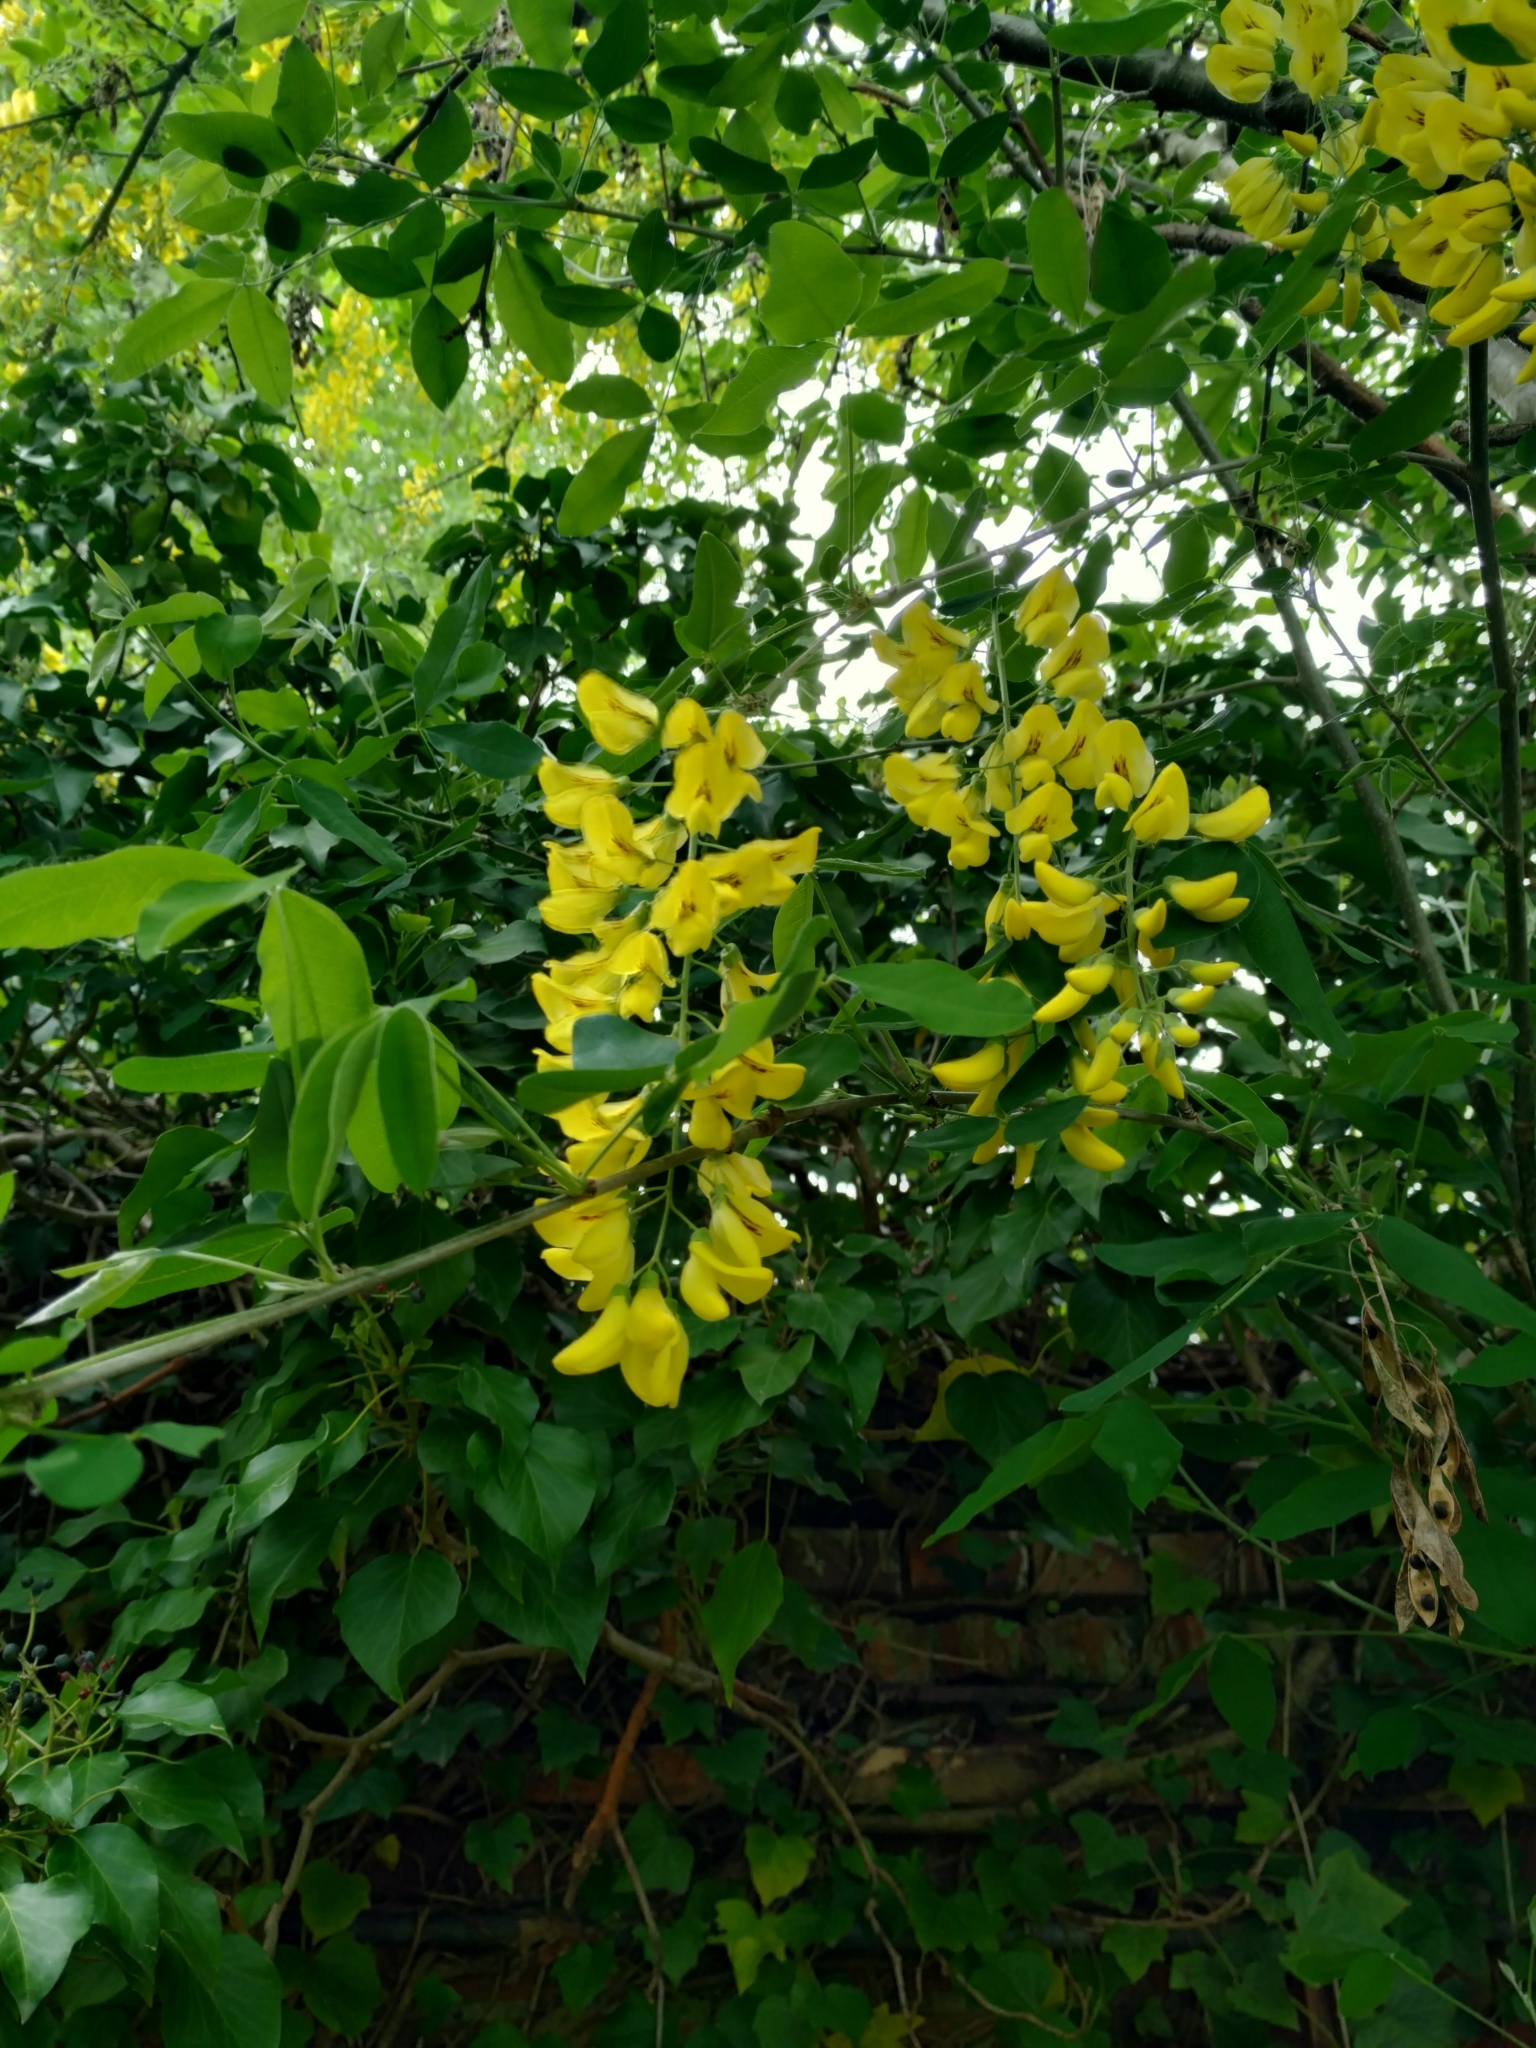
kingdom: Plantae
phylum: Tracheophyta
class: Magnoliopsida
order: Fabales
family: Fabaceae
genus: Laburnum
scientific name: Laburnum anagyroides
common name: Laburnum
